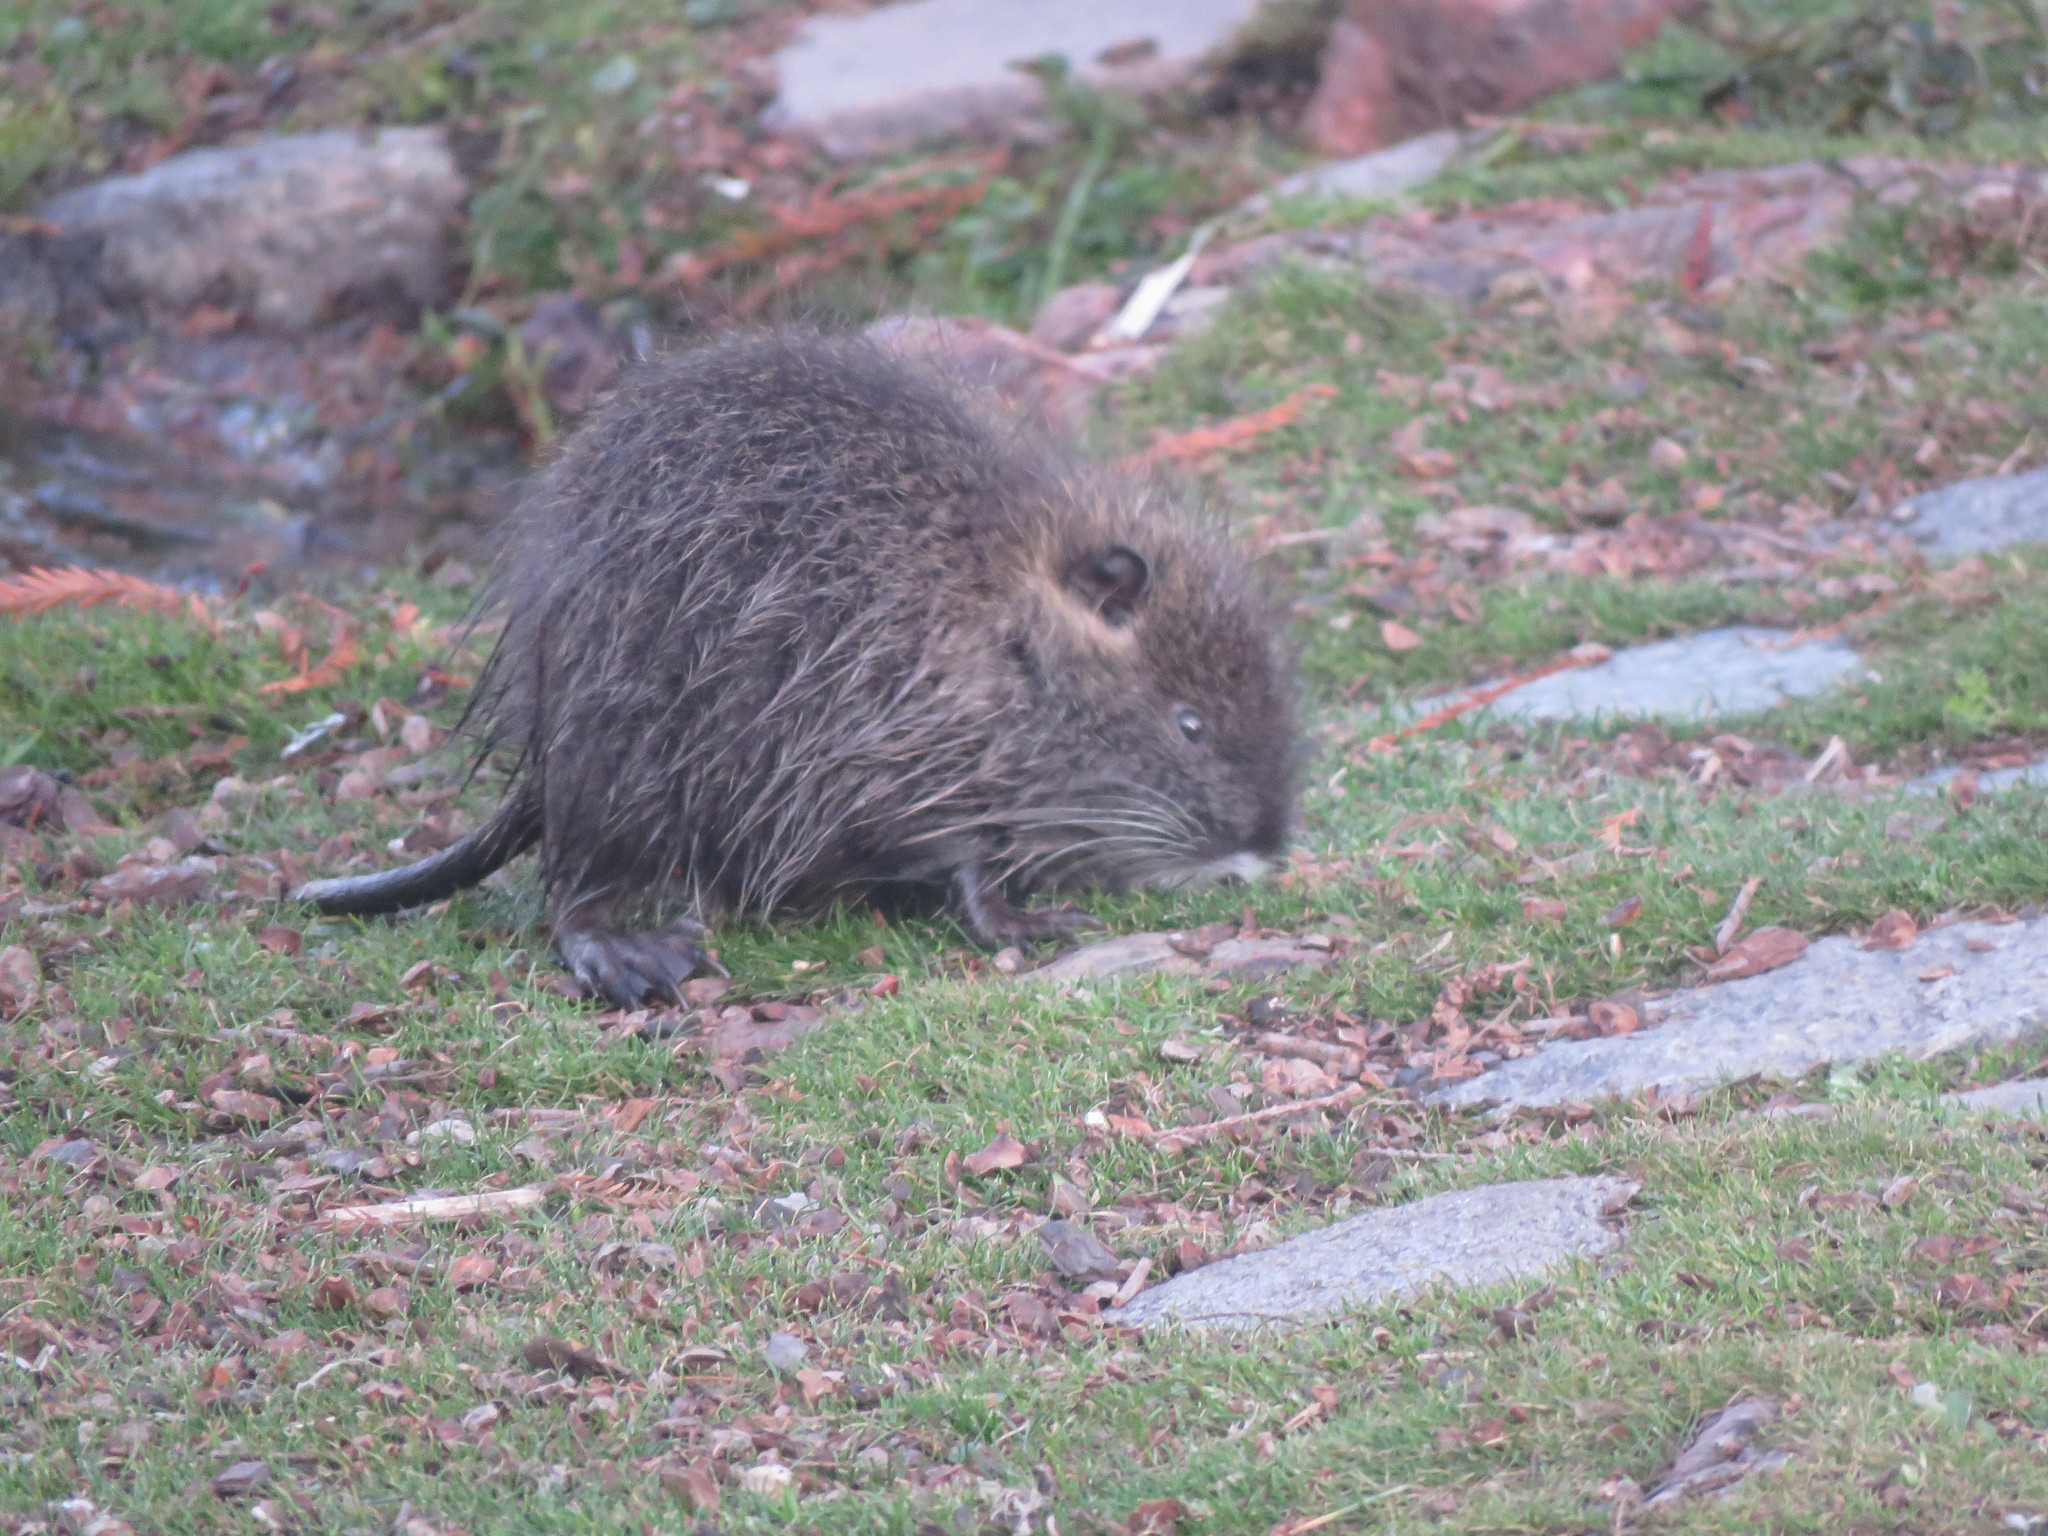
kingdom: Animalia
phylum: Chordata
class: Mammalia
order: Rodentia
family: Myocastoridae
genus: Myocastor
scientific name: Myocastor coypus
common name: Coypu
